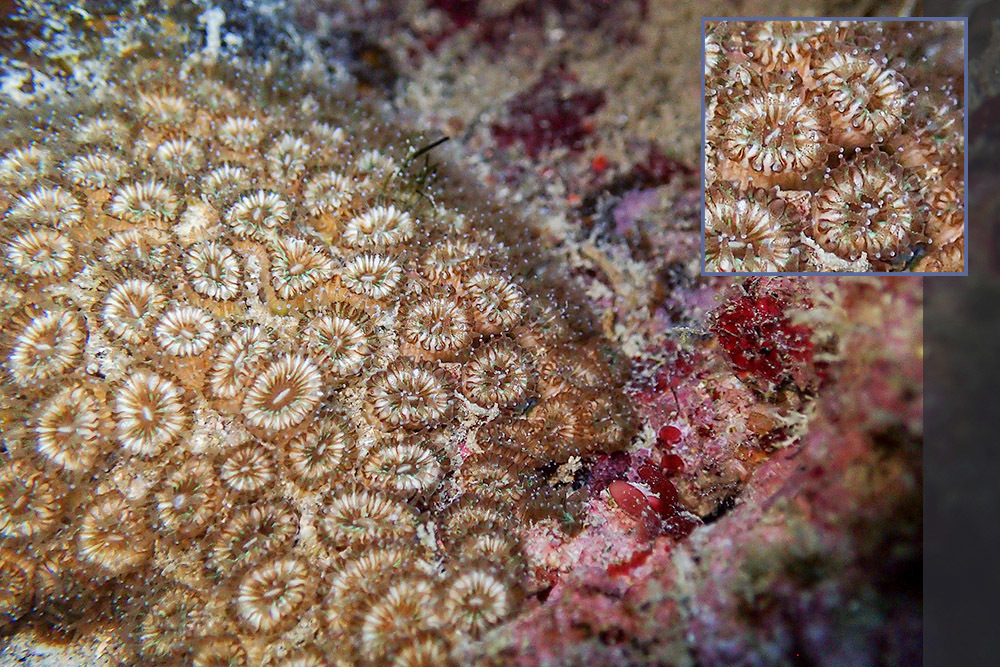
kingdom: Animalia
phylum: Cnidaria
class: Anthozoa
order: Scleractinia
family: Cladocoridae
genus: Cladocora
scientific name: Cladocora caespitosa
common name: Cladocora
